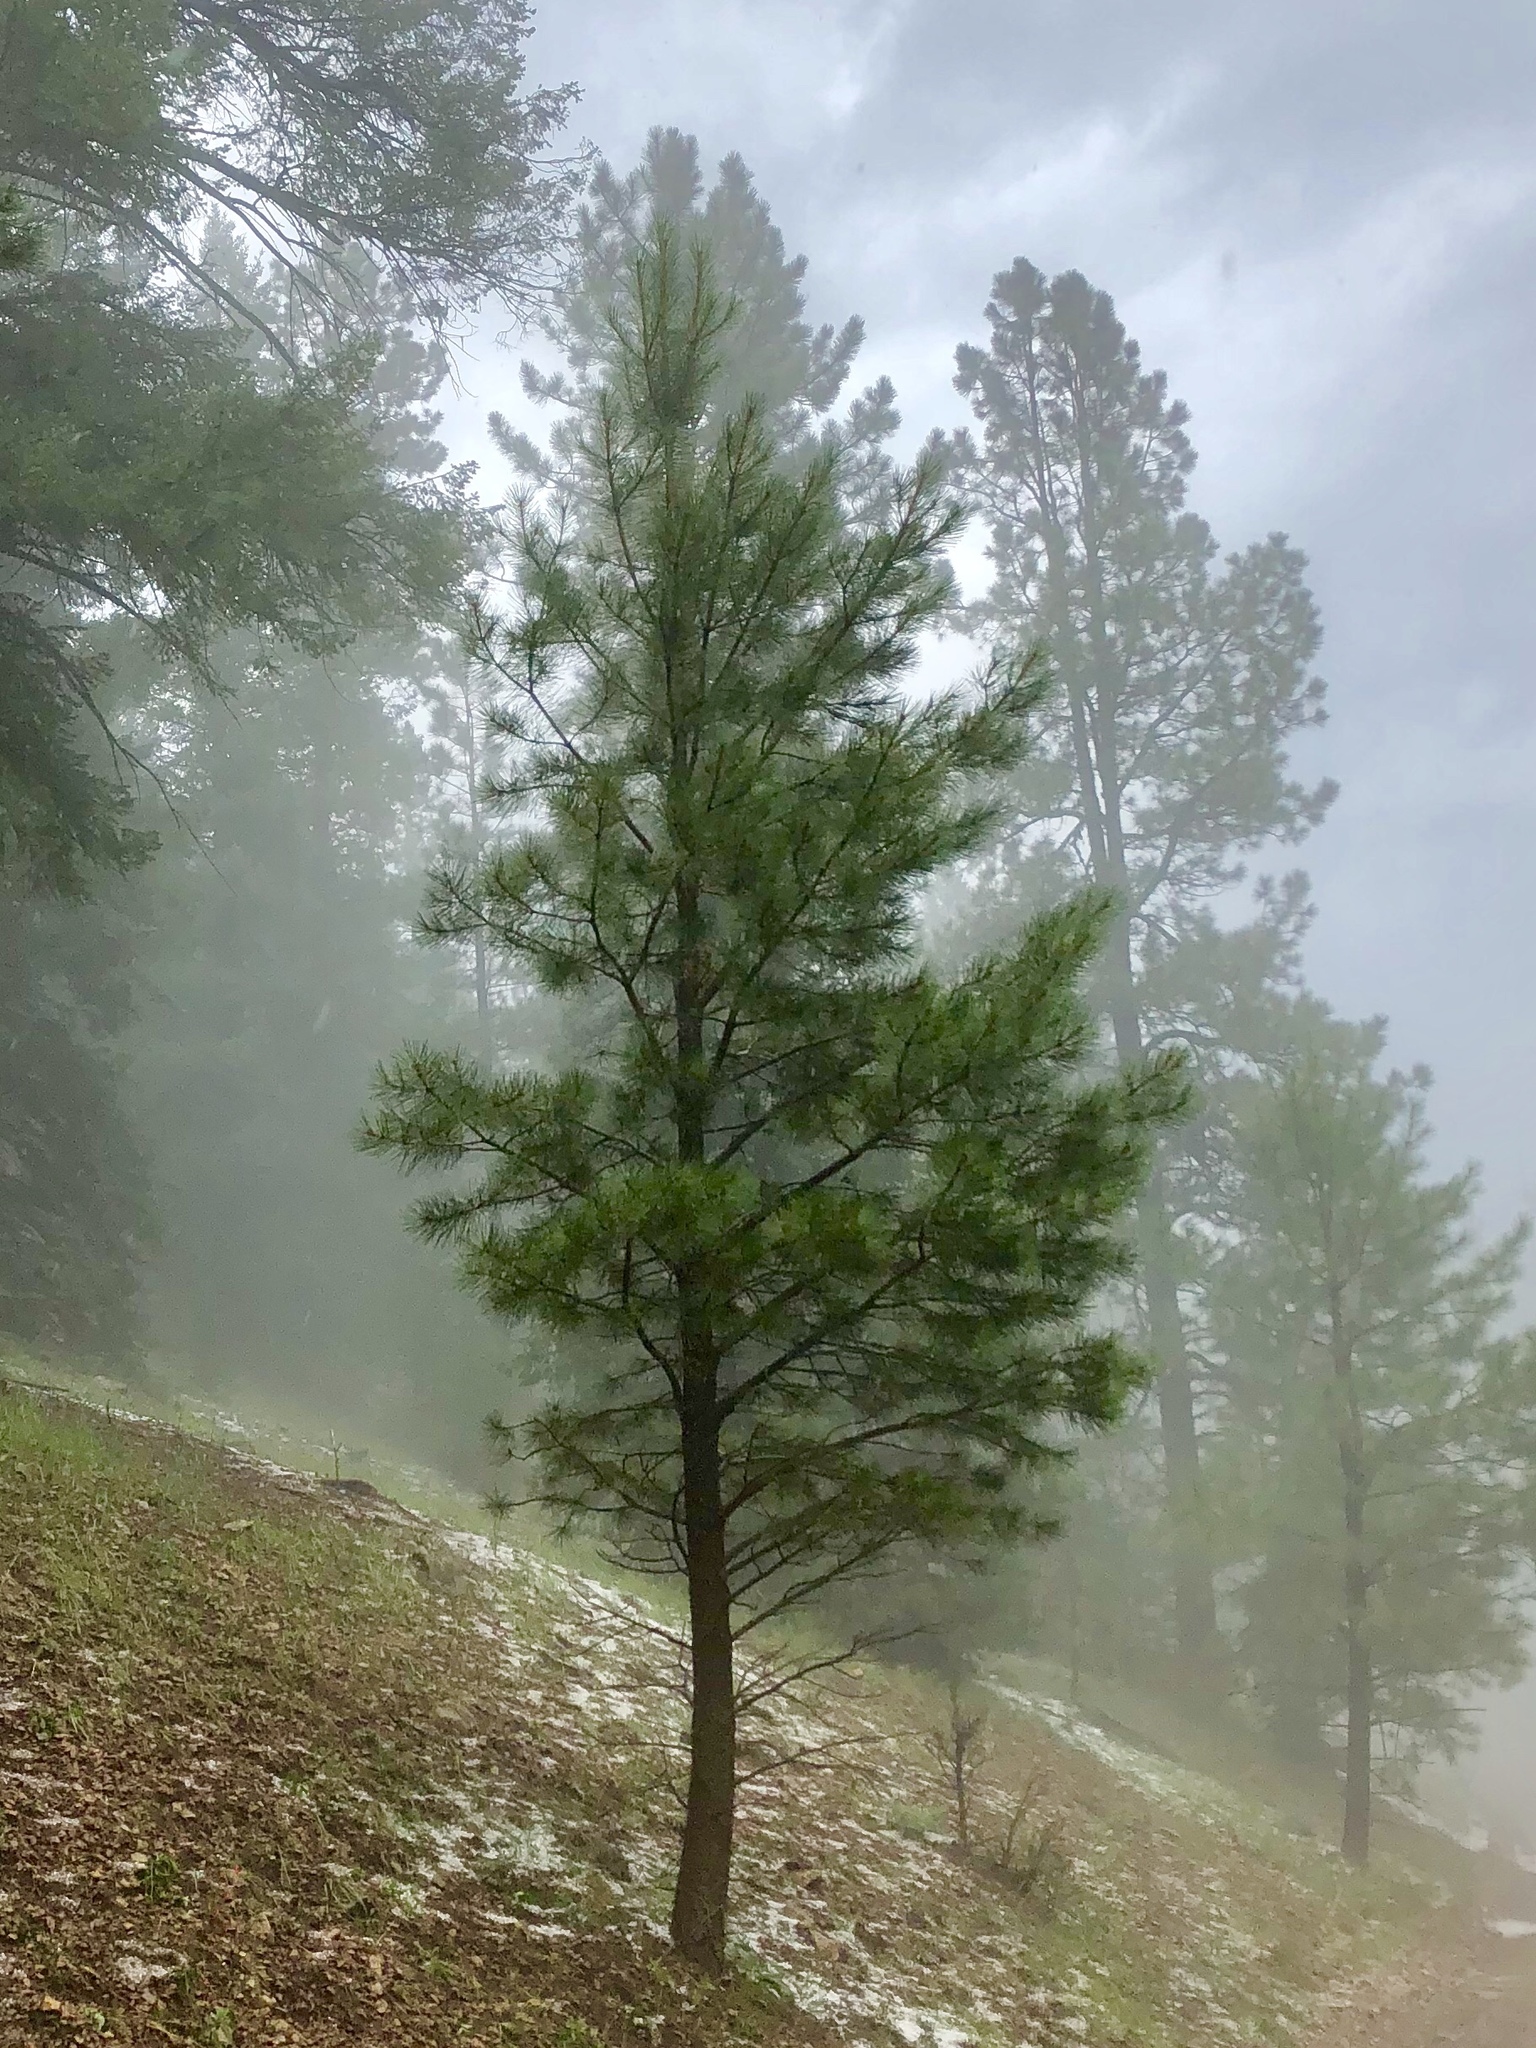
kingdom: Plantae
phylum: Tracheophyta
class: Pinopsida
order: Pinales
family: Pinaceae
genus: Pinus
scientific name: Pinus strobiformis
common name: Southwestern white pine
